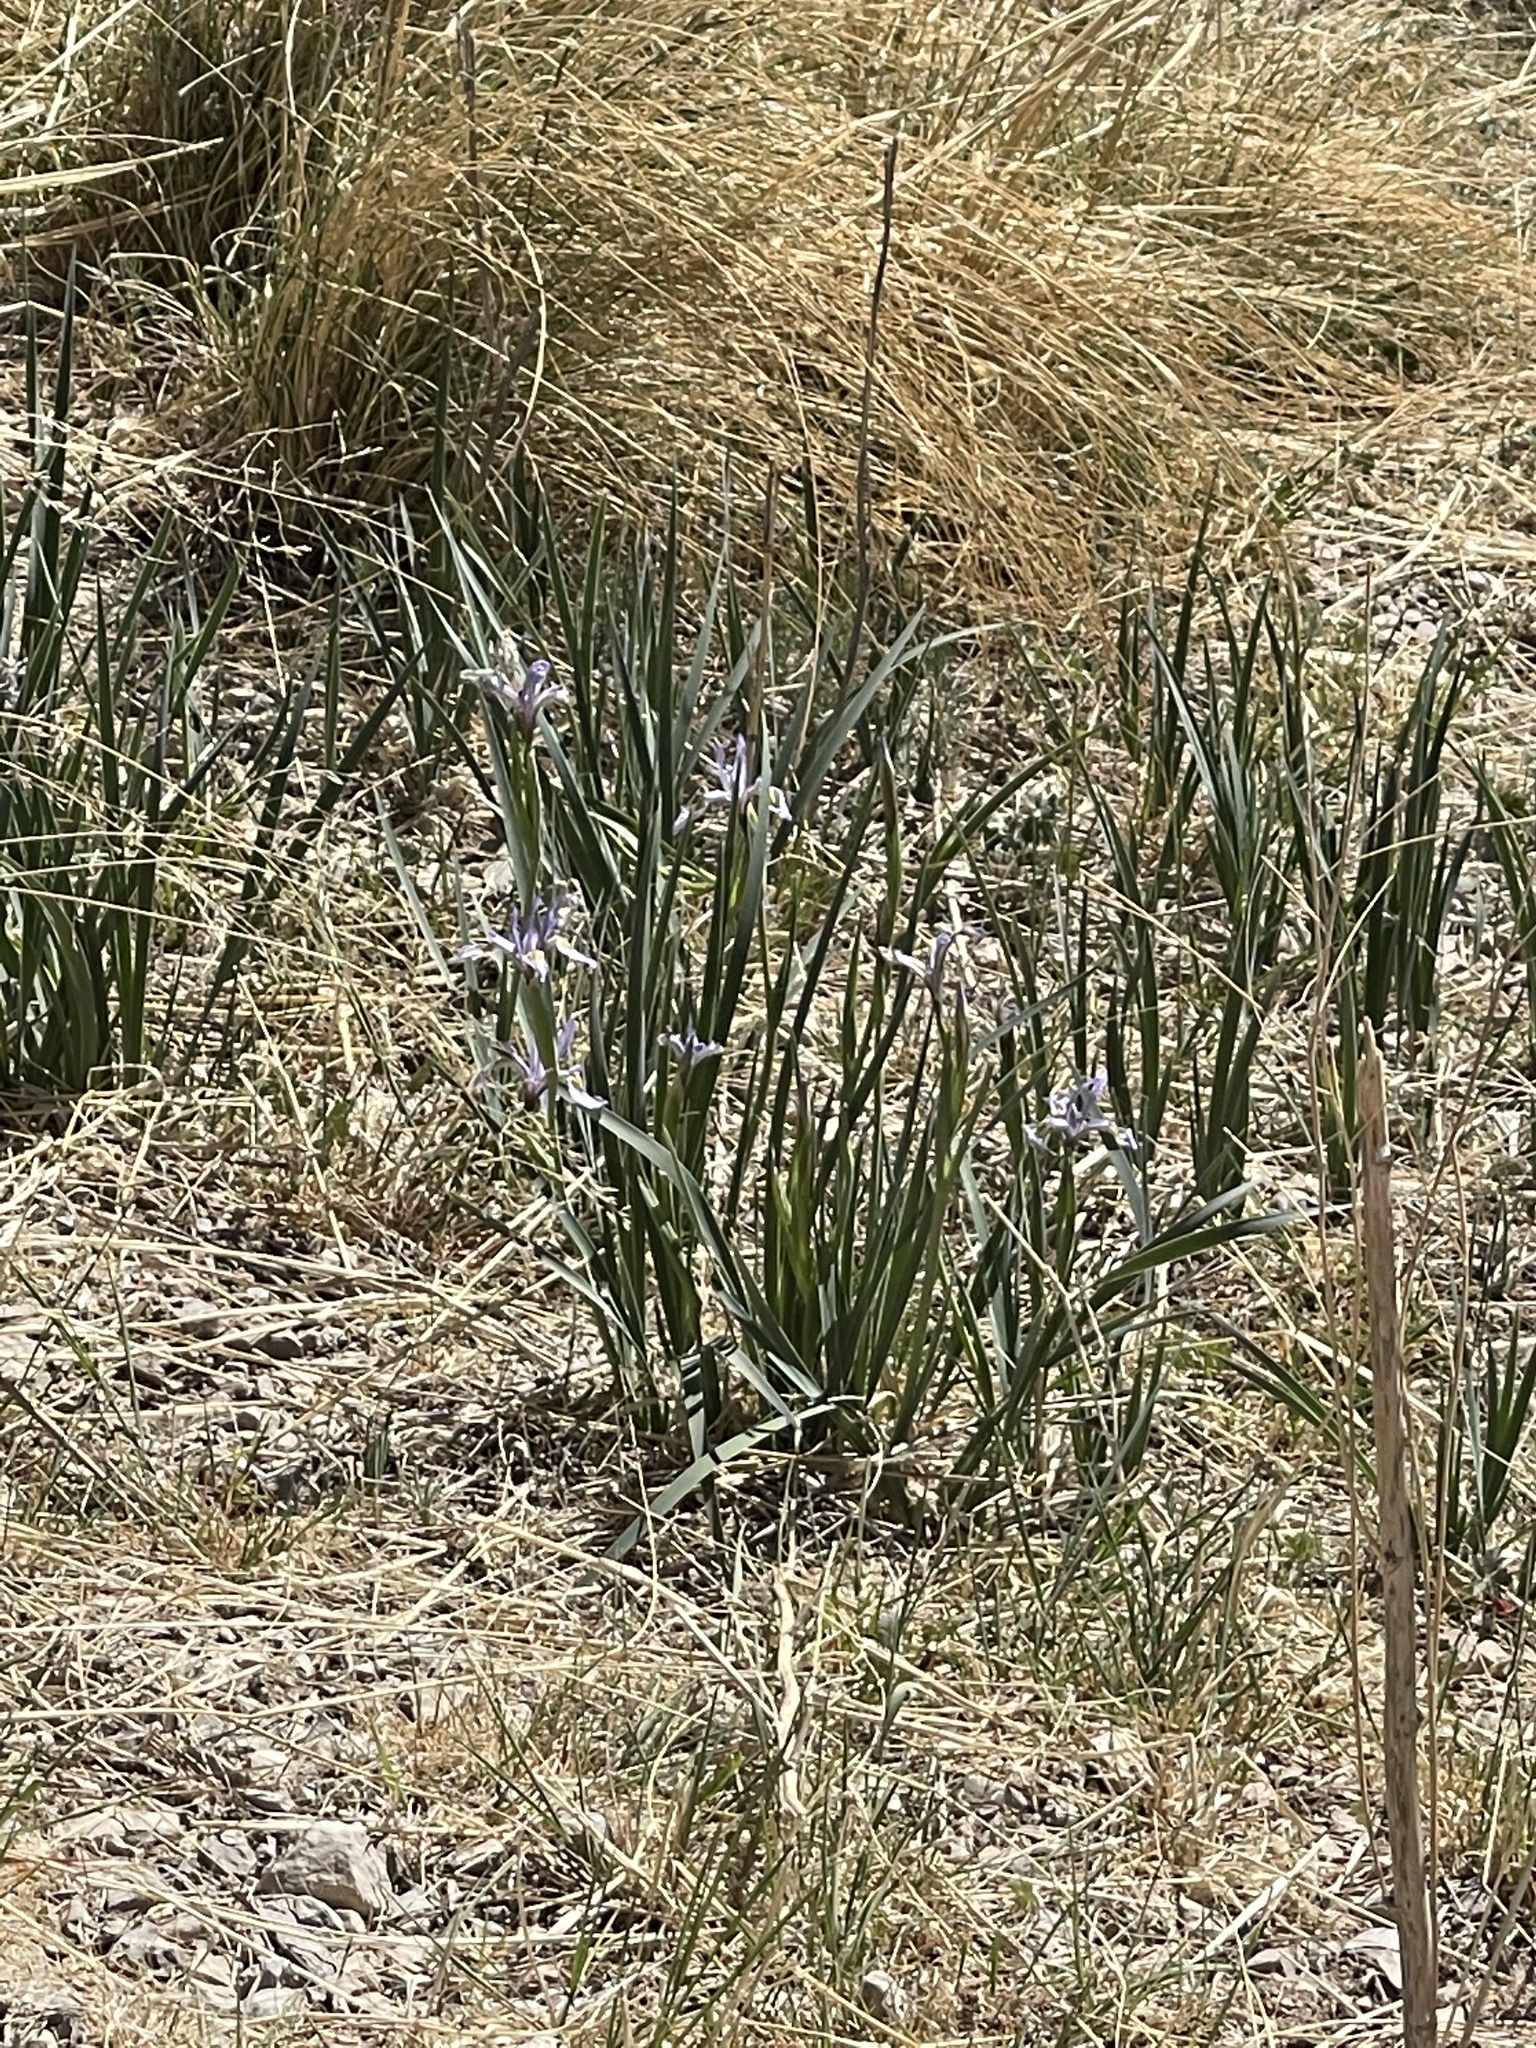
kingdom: Plantae
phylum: Tracheophyta
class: Liliopsida
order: Asparagales
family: Iridaceae
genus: Iris
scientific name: Iris missouriensis
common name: Rocky mountain iris
